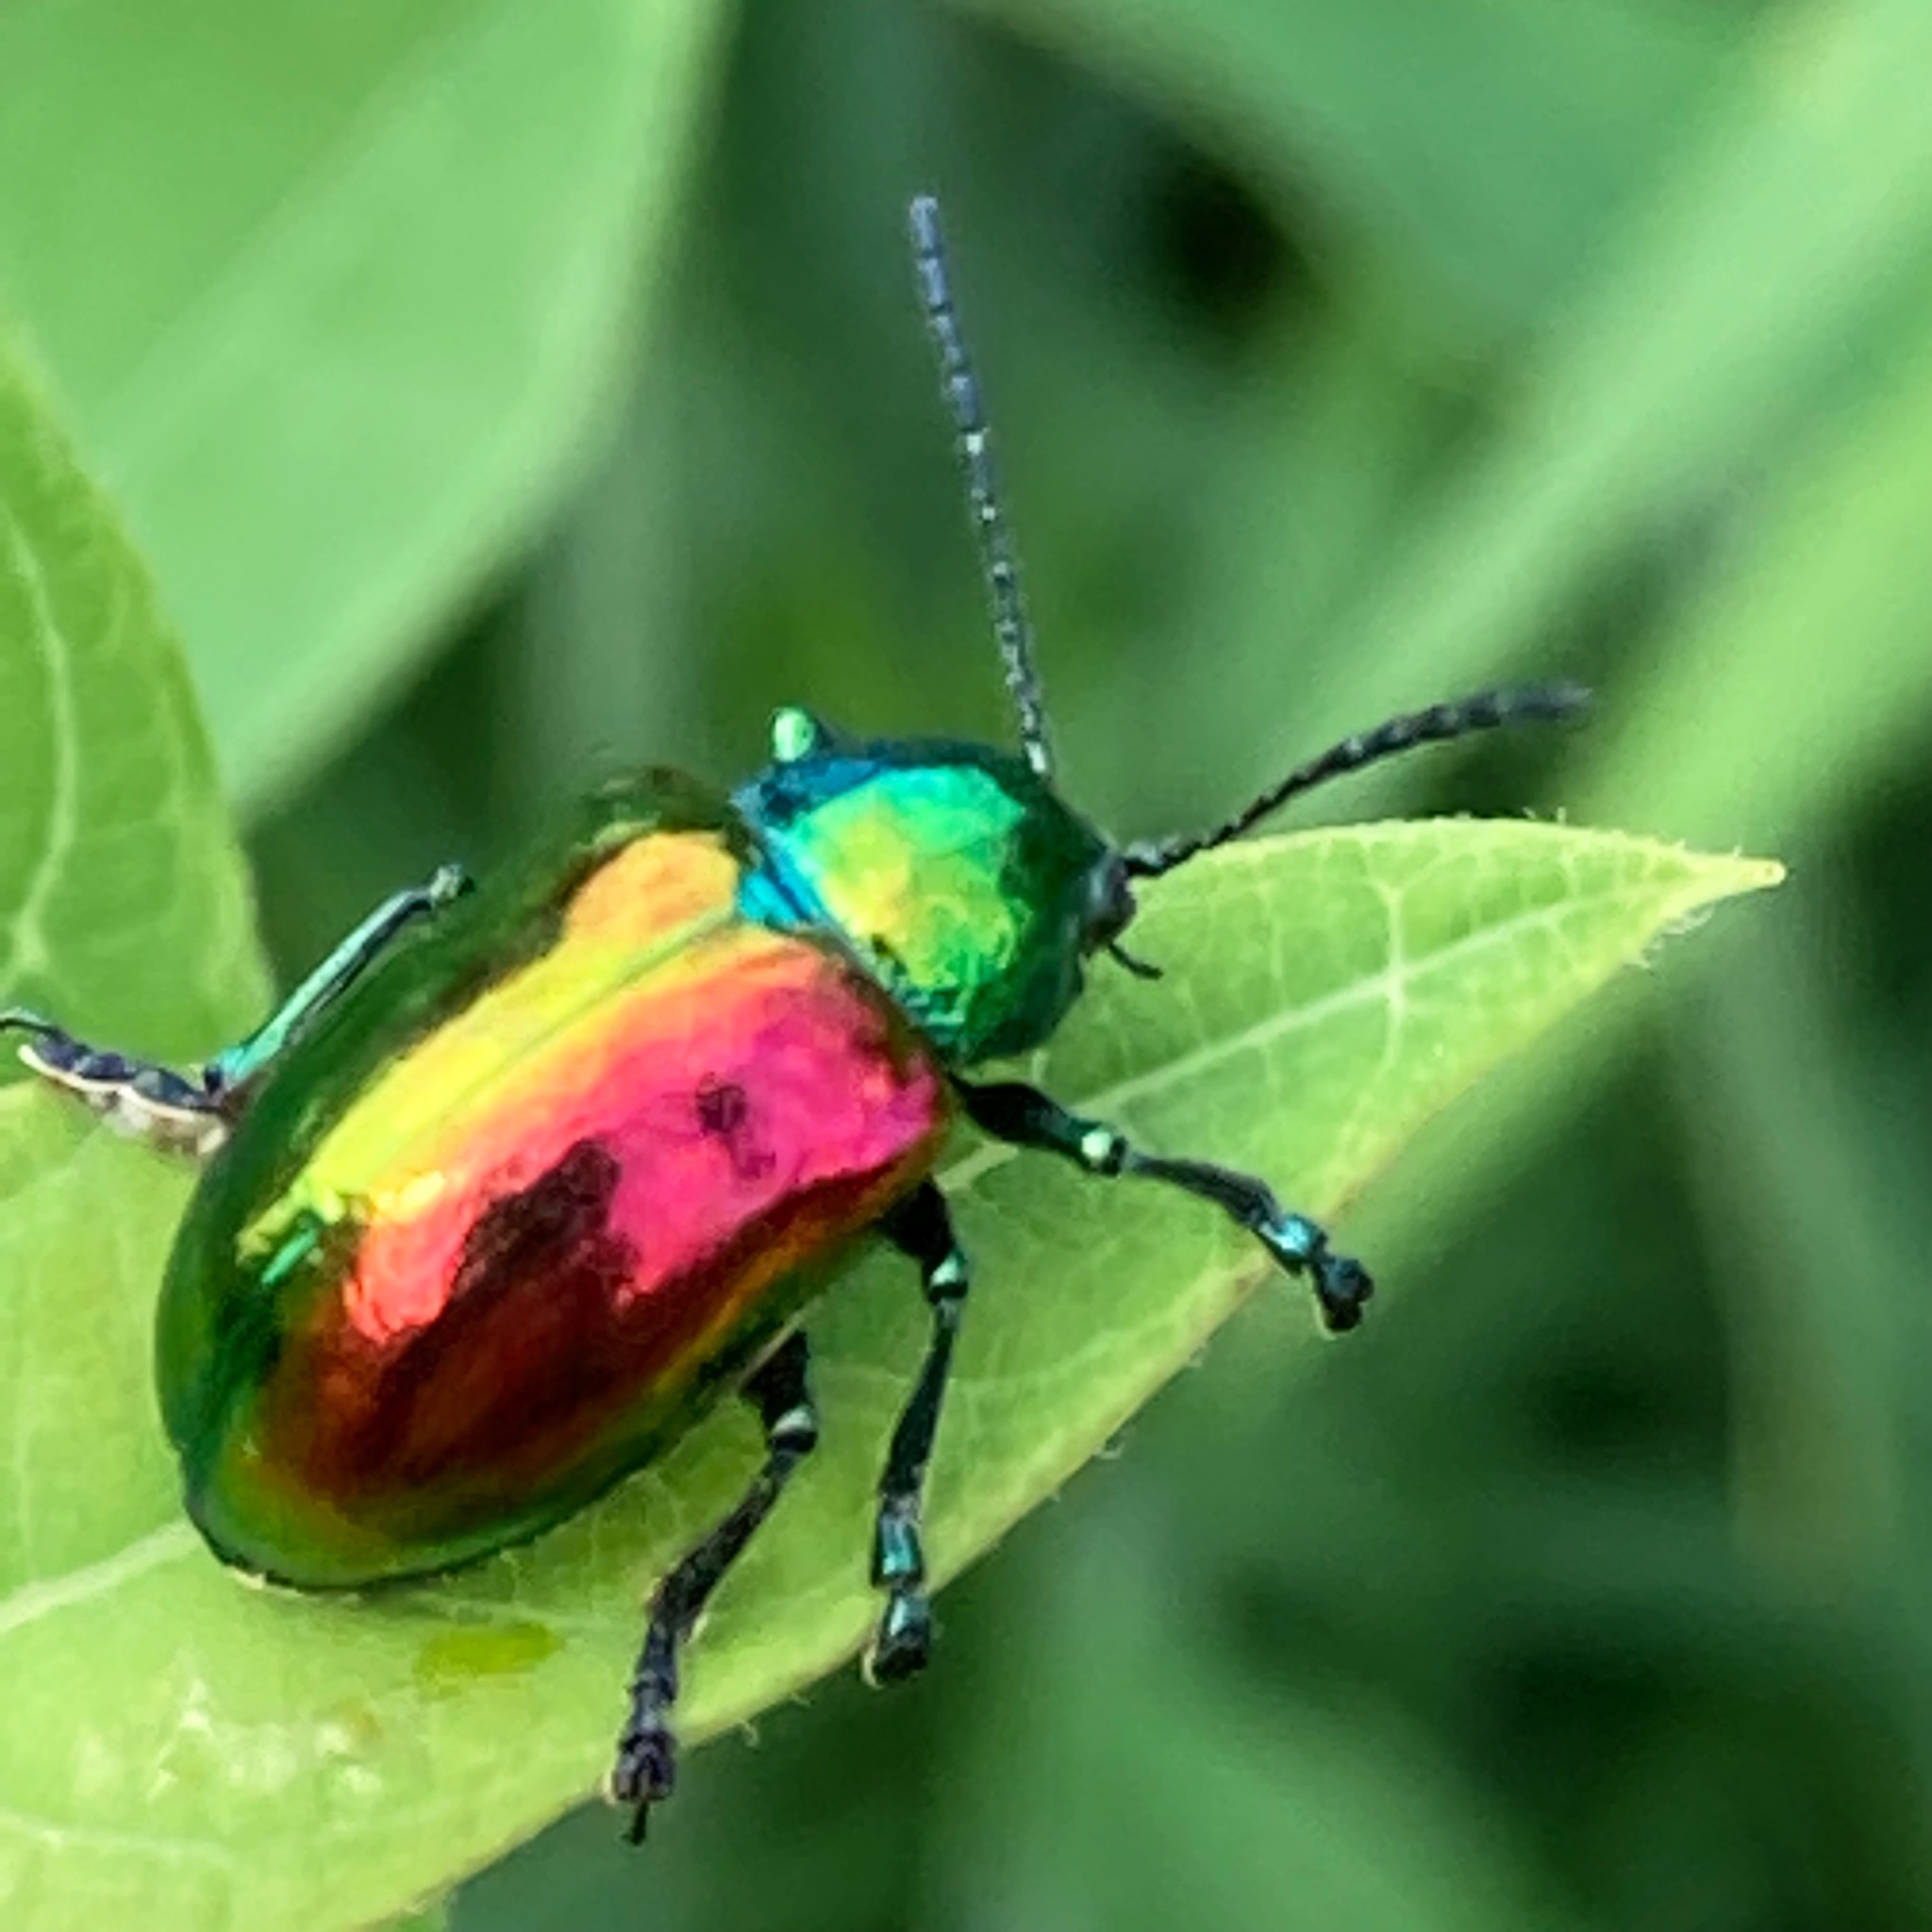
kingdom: Animalia
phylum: Arthropoda
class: Insecta
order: Coleoptera
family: Chrysomelidae
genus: Chrysochus
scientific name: Chrysochus auratus
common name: Dogbane leaf beetle
